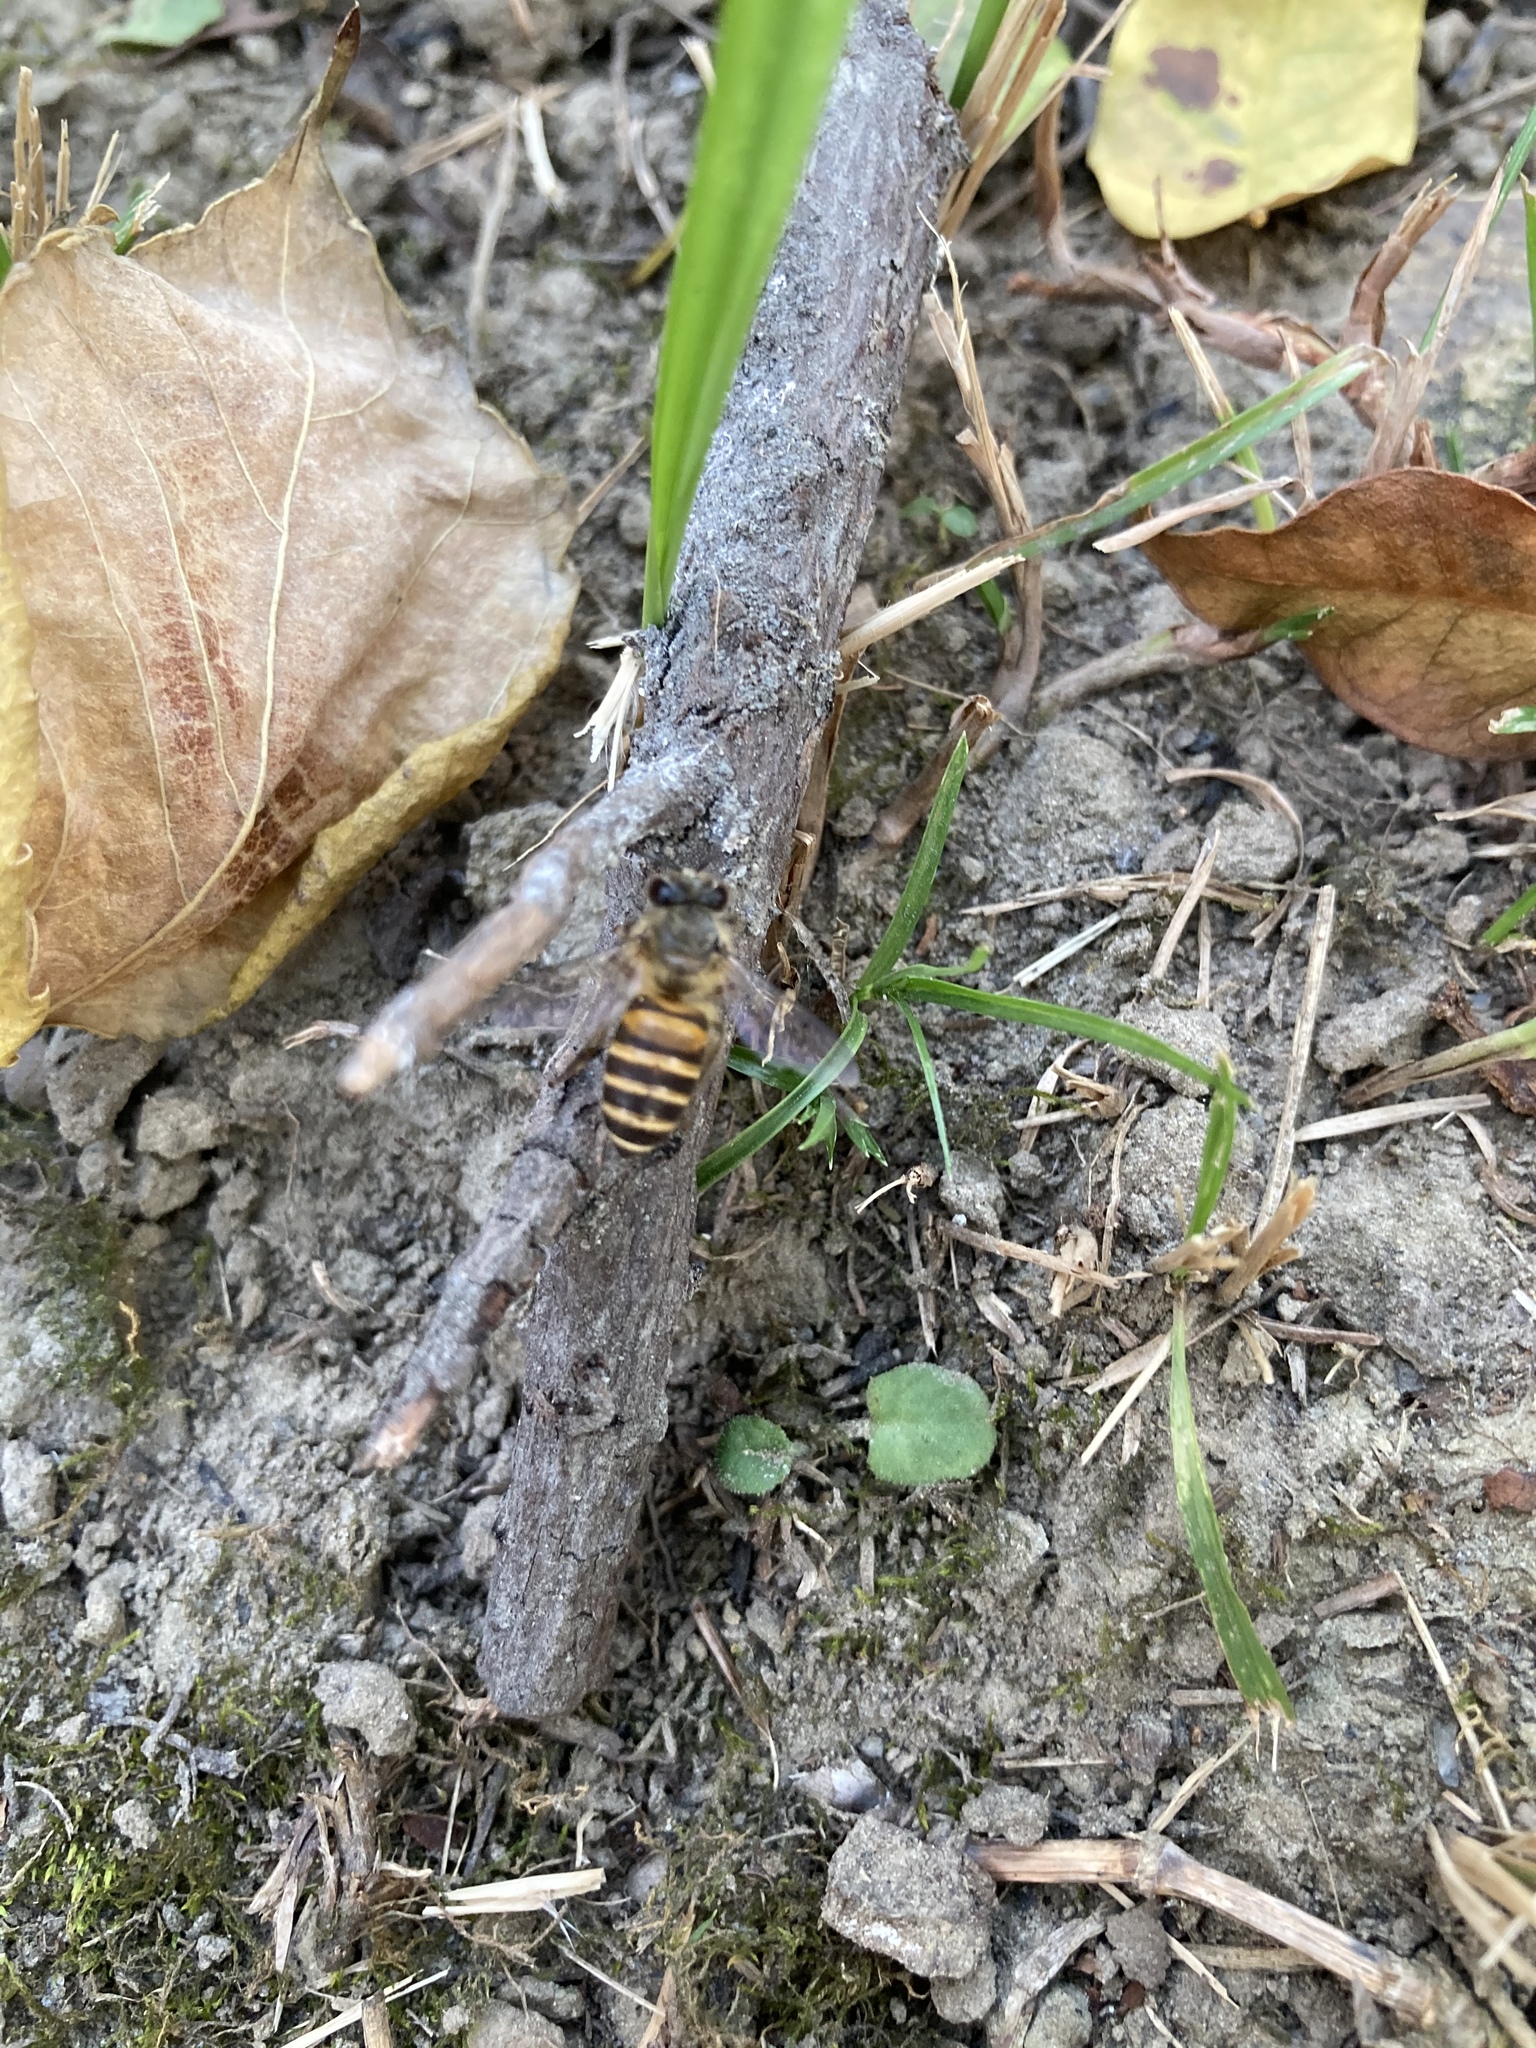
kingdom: Animalia
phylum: Arthropoda
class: Insecta
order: Hymenoptera
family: Apidae
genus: Apis
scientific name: Apis cerana
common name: Honey bee
